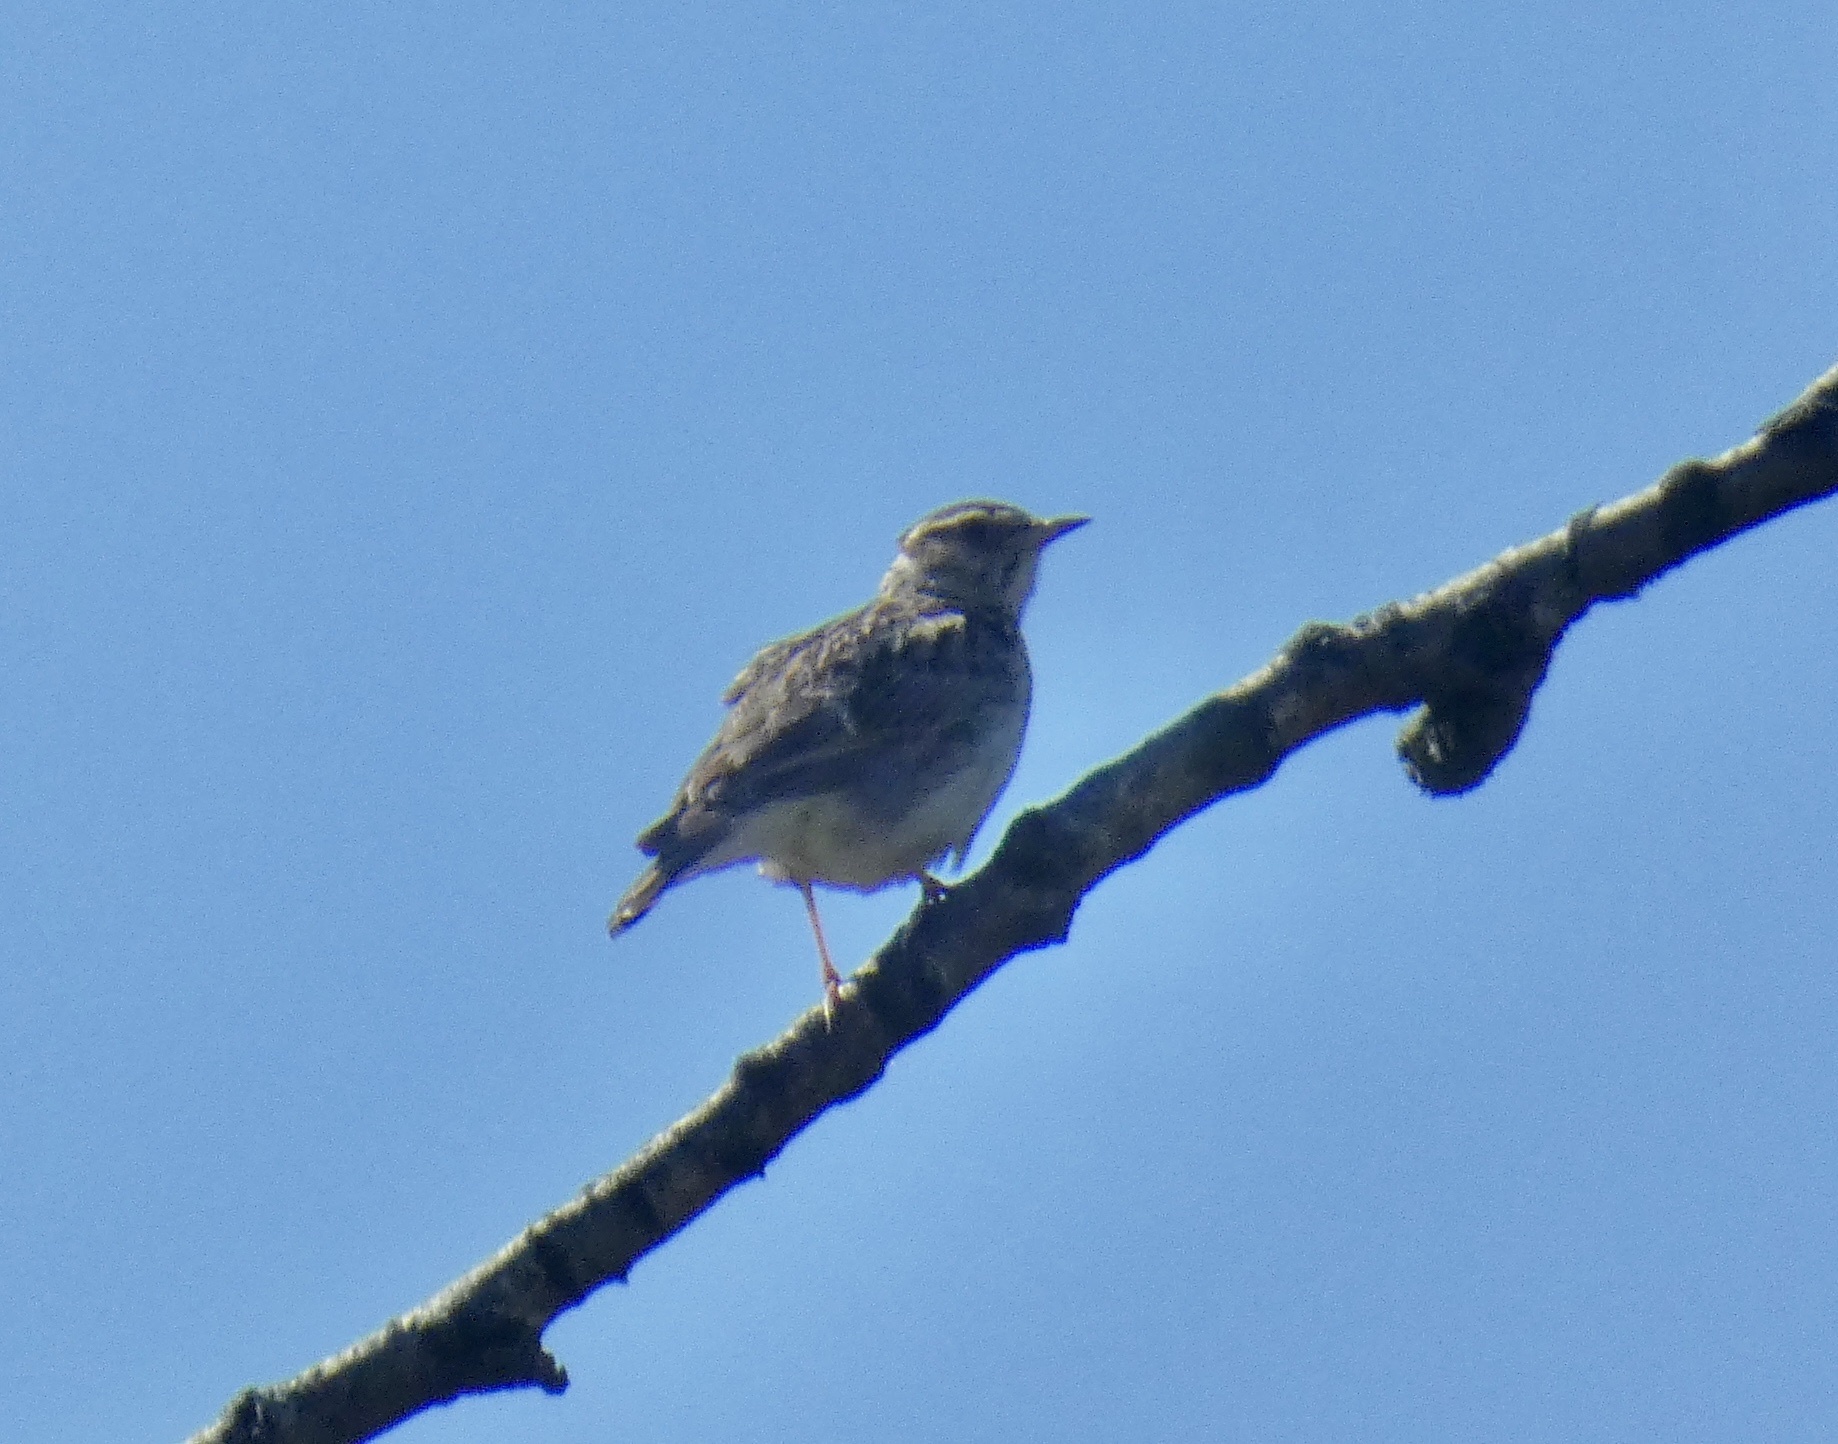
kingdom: Animalia
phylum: Chordata
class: Aves
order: Passeriformes
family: Alaudidae
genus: Lullula
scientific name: Lullula arborea
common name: Woodlark
